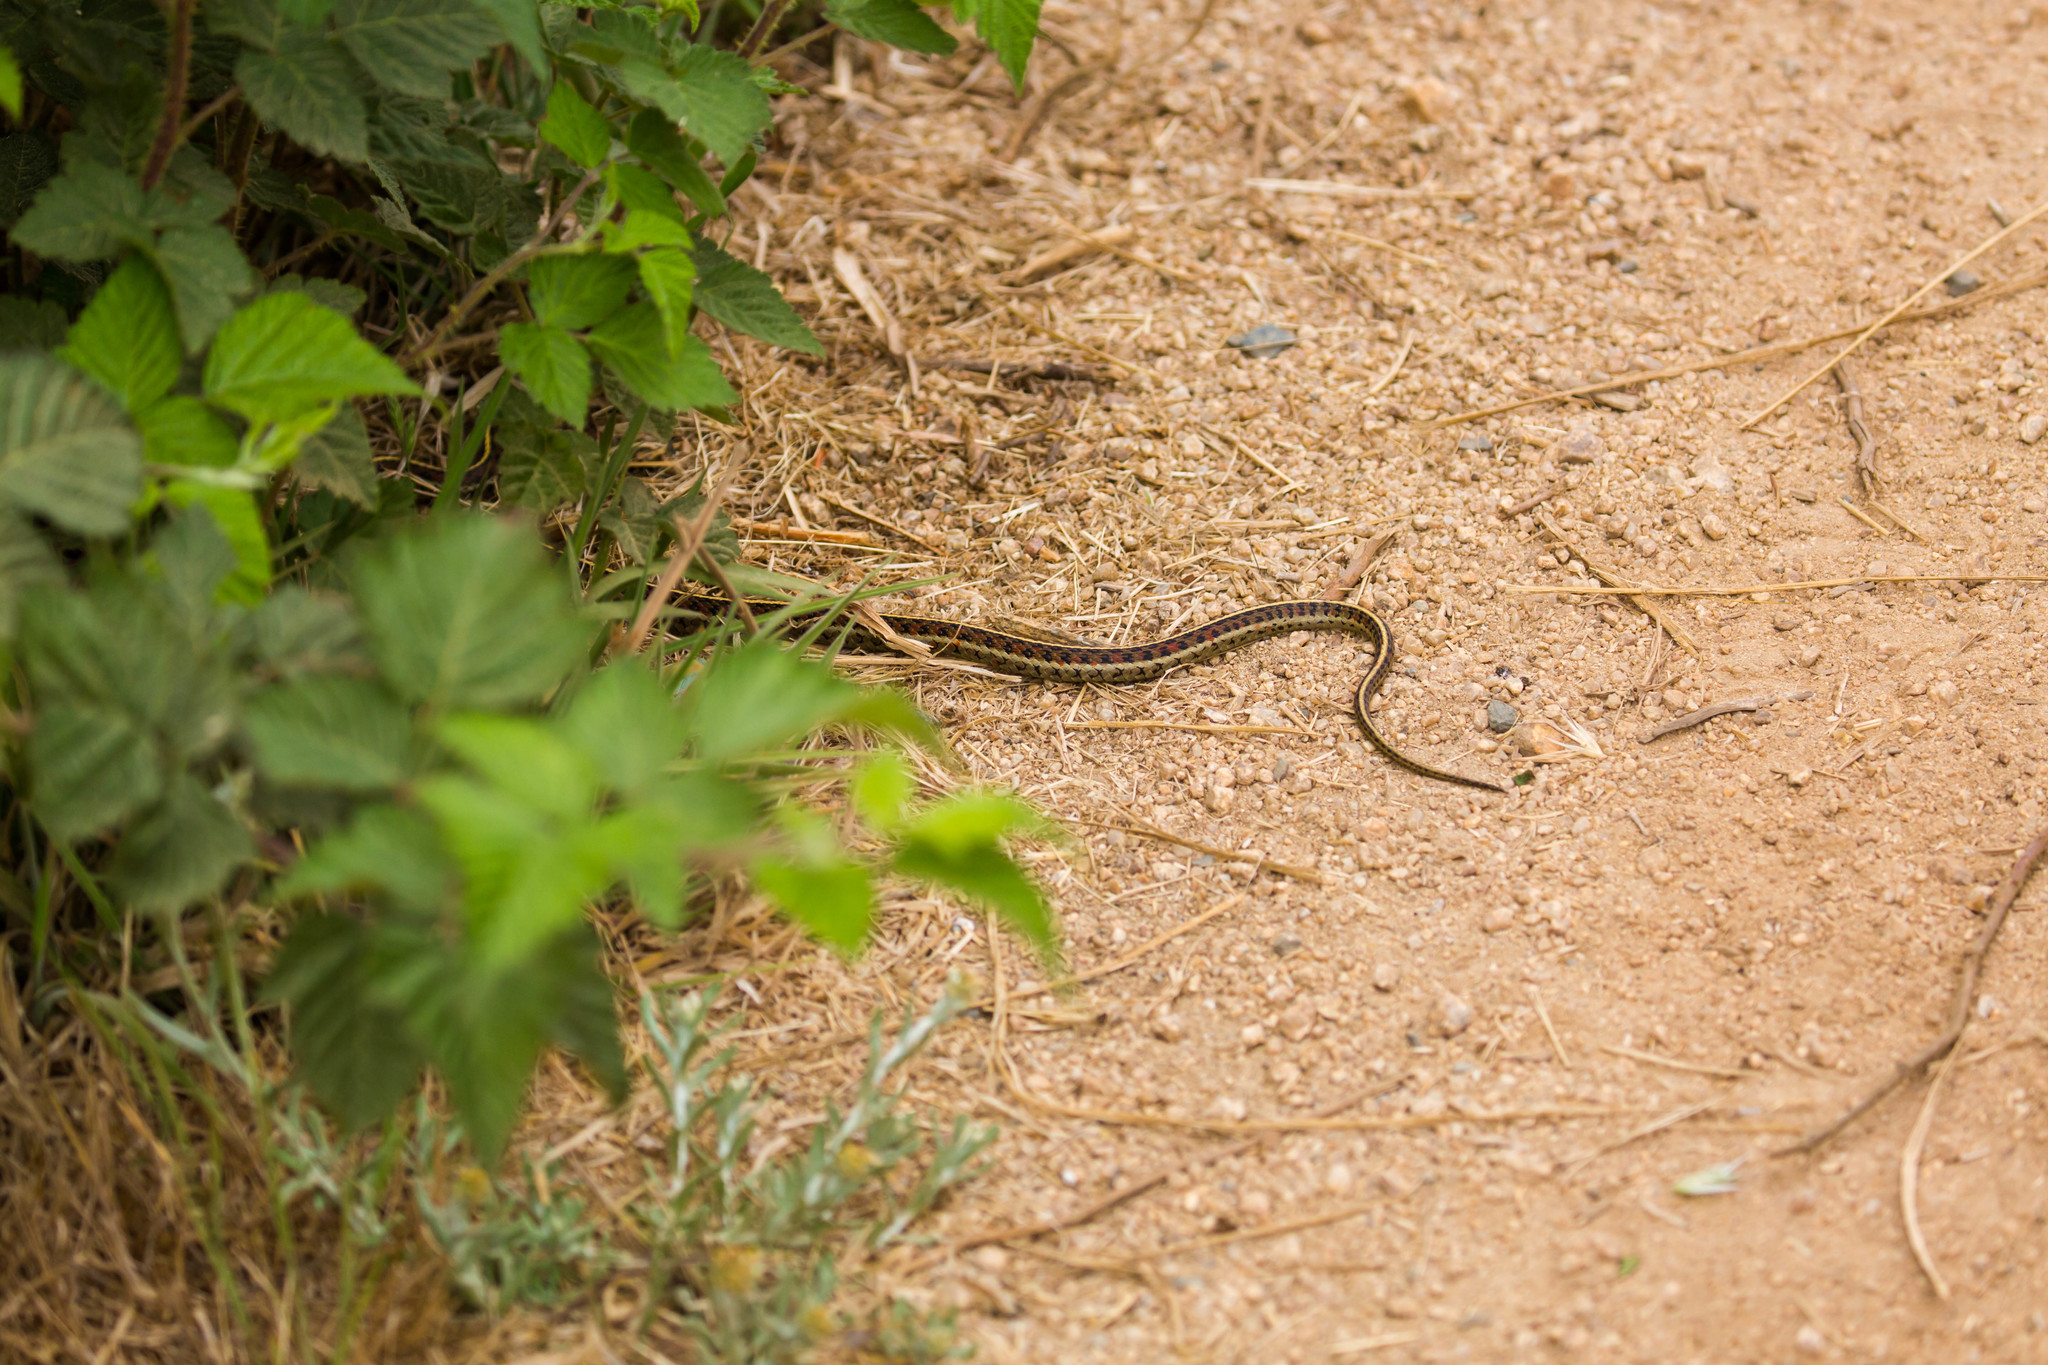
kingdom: Animalia
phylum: Chordata
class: Squamata
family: Colubridae
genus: Thamnophis
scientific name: Thamnophis elegans
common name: Western terrestrial garter snake
